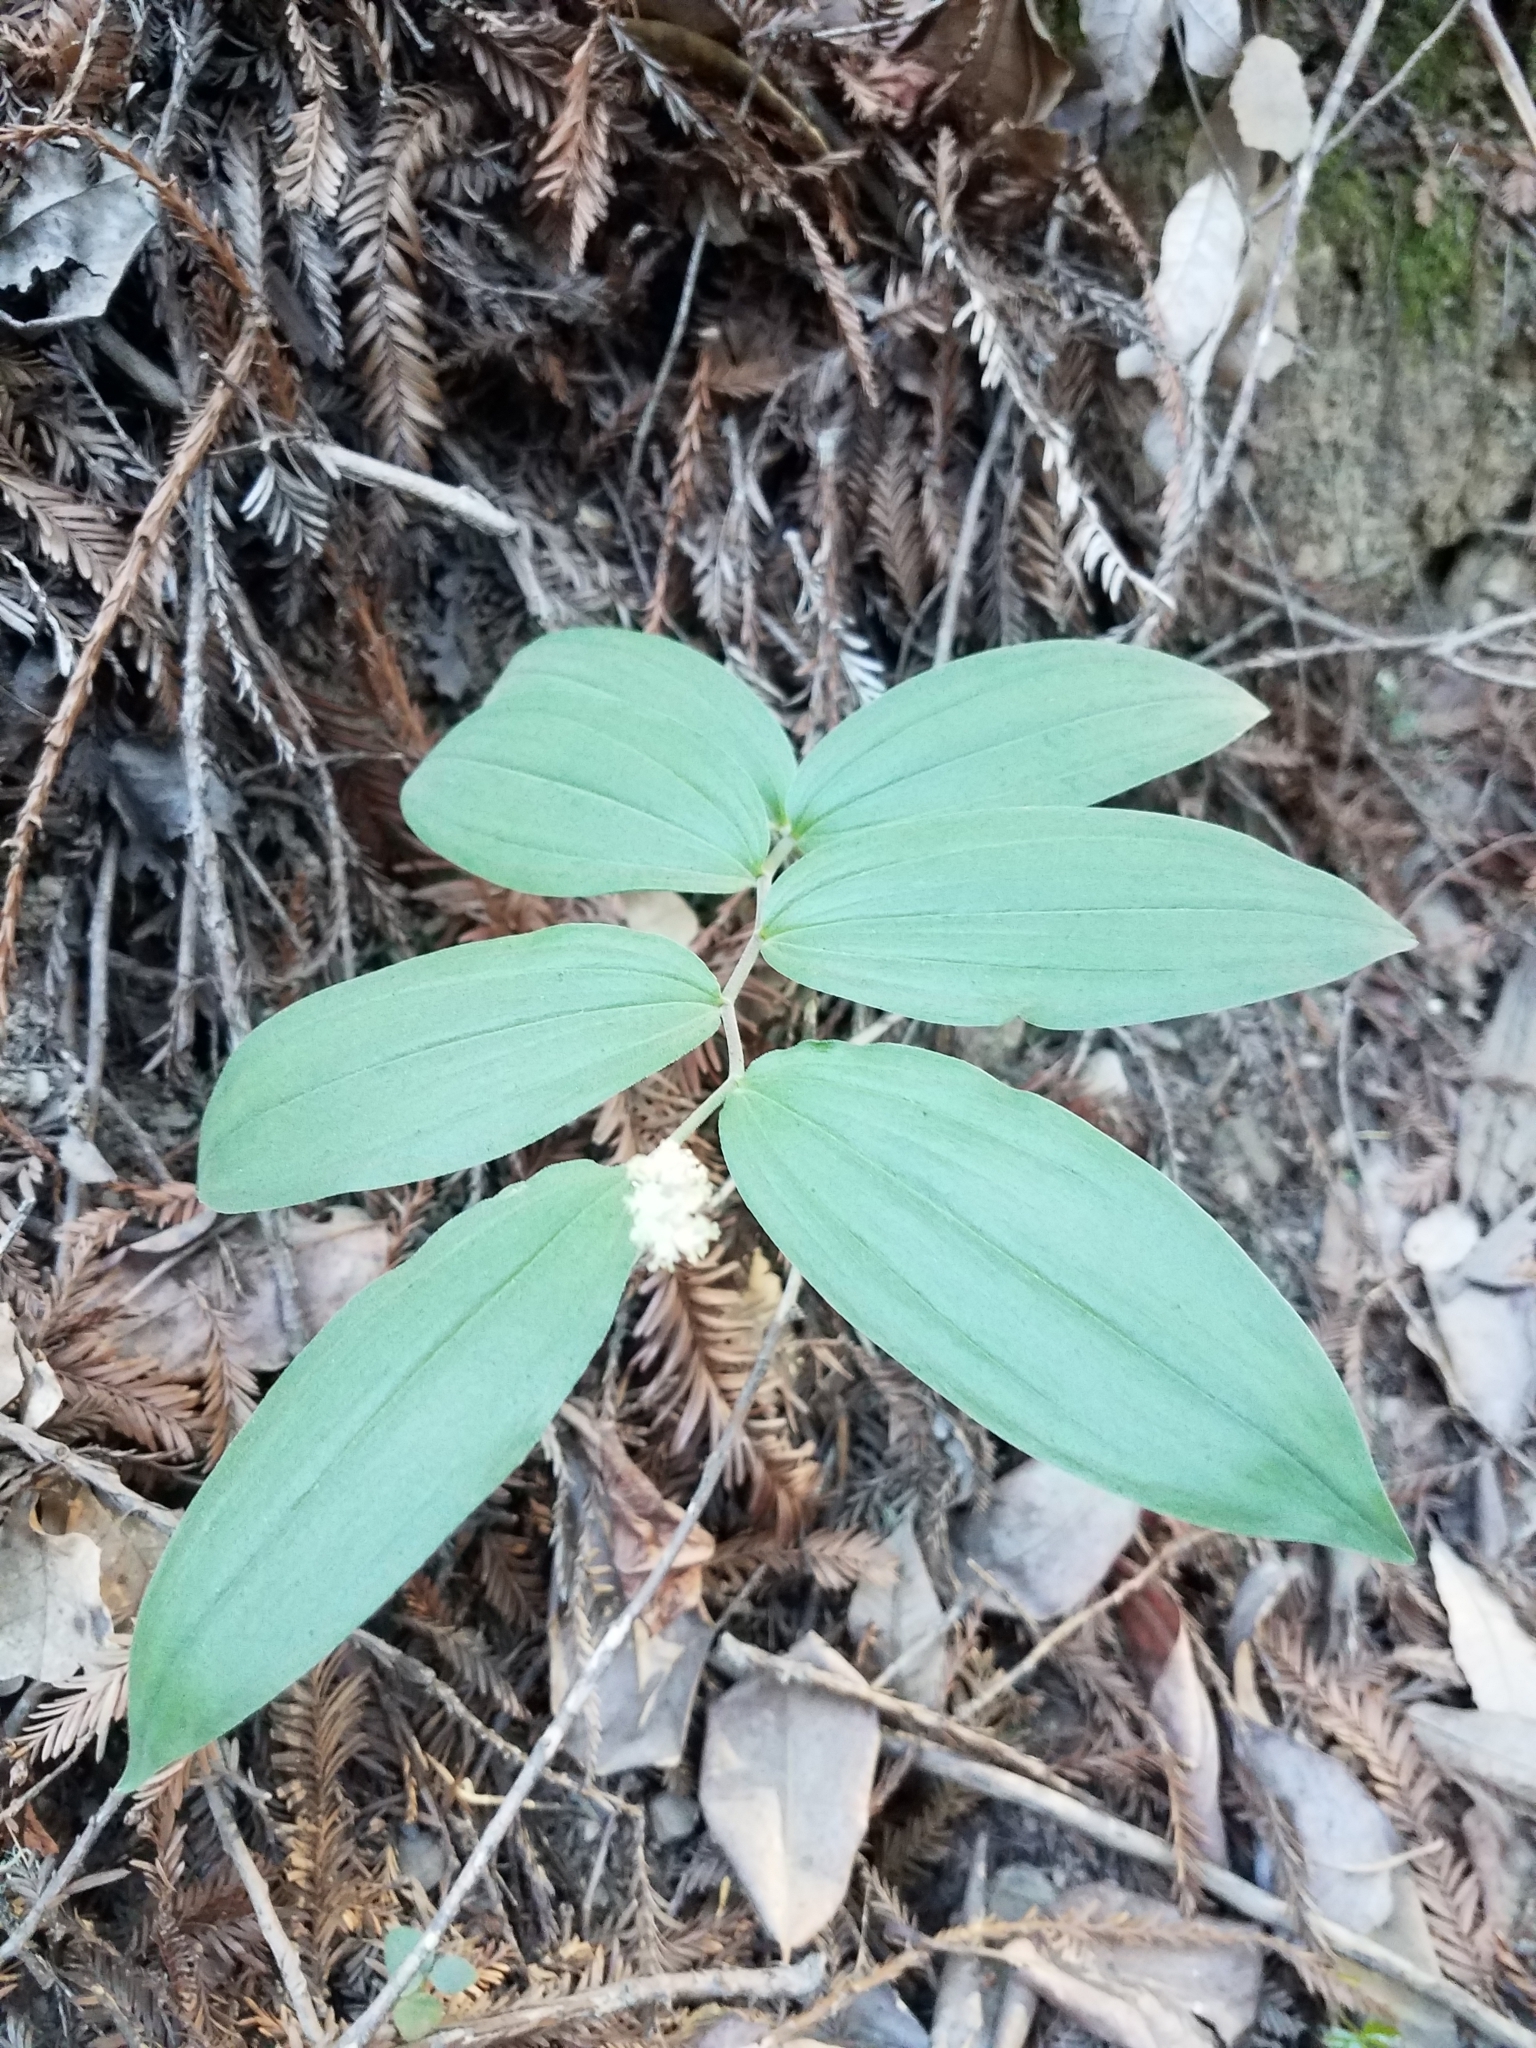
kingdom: Plantae
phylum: Tracheophyta
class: Liliopsida
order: Asparagales
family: Asparagaceae
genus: Maianthemum
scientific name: Maianthemum racemosum
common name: False spikenard
